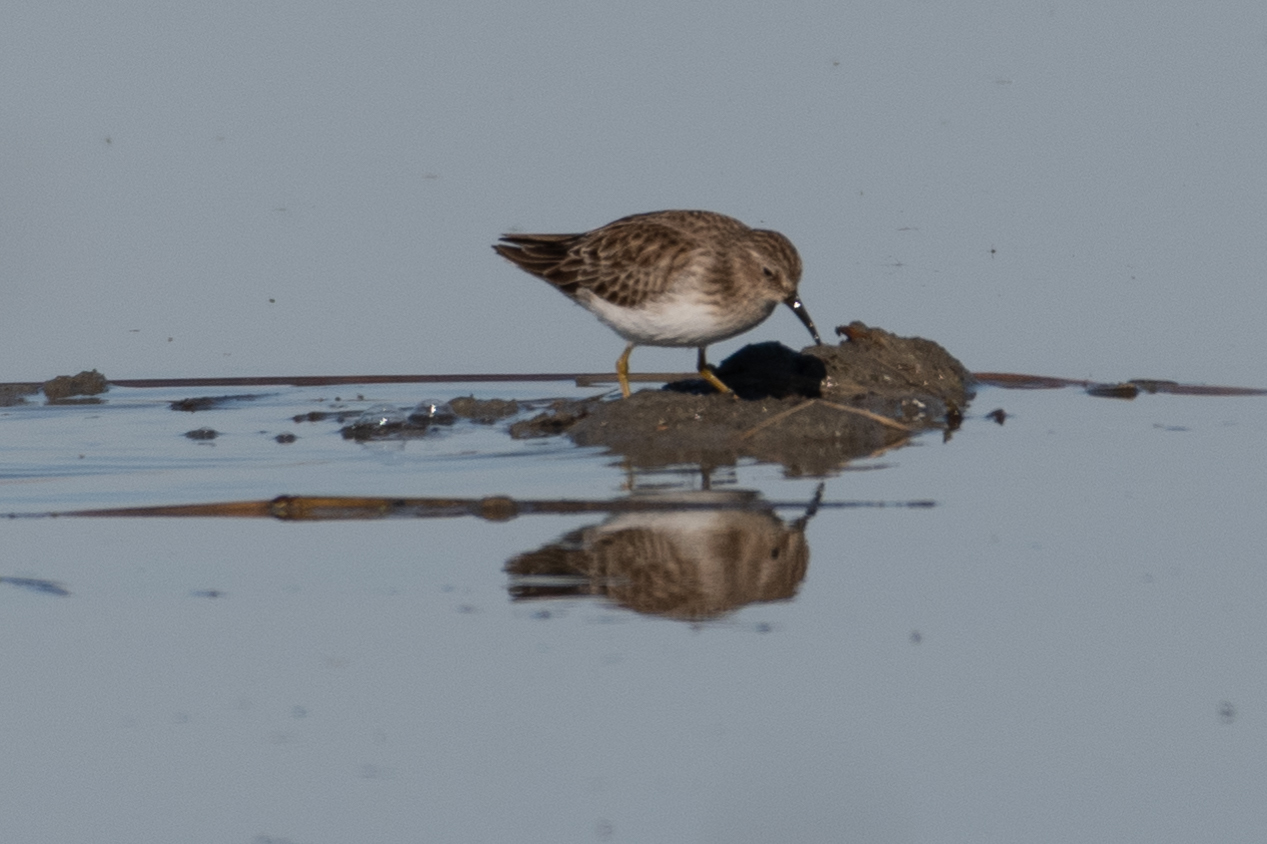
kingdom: Animalia
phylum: Chordata
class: Aves
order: Charadriiformes
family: Scolopacidae
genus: Calidris
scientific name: Calidris minutilla
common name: Least sandpiper
